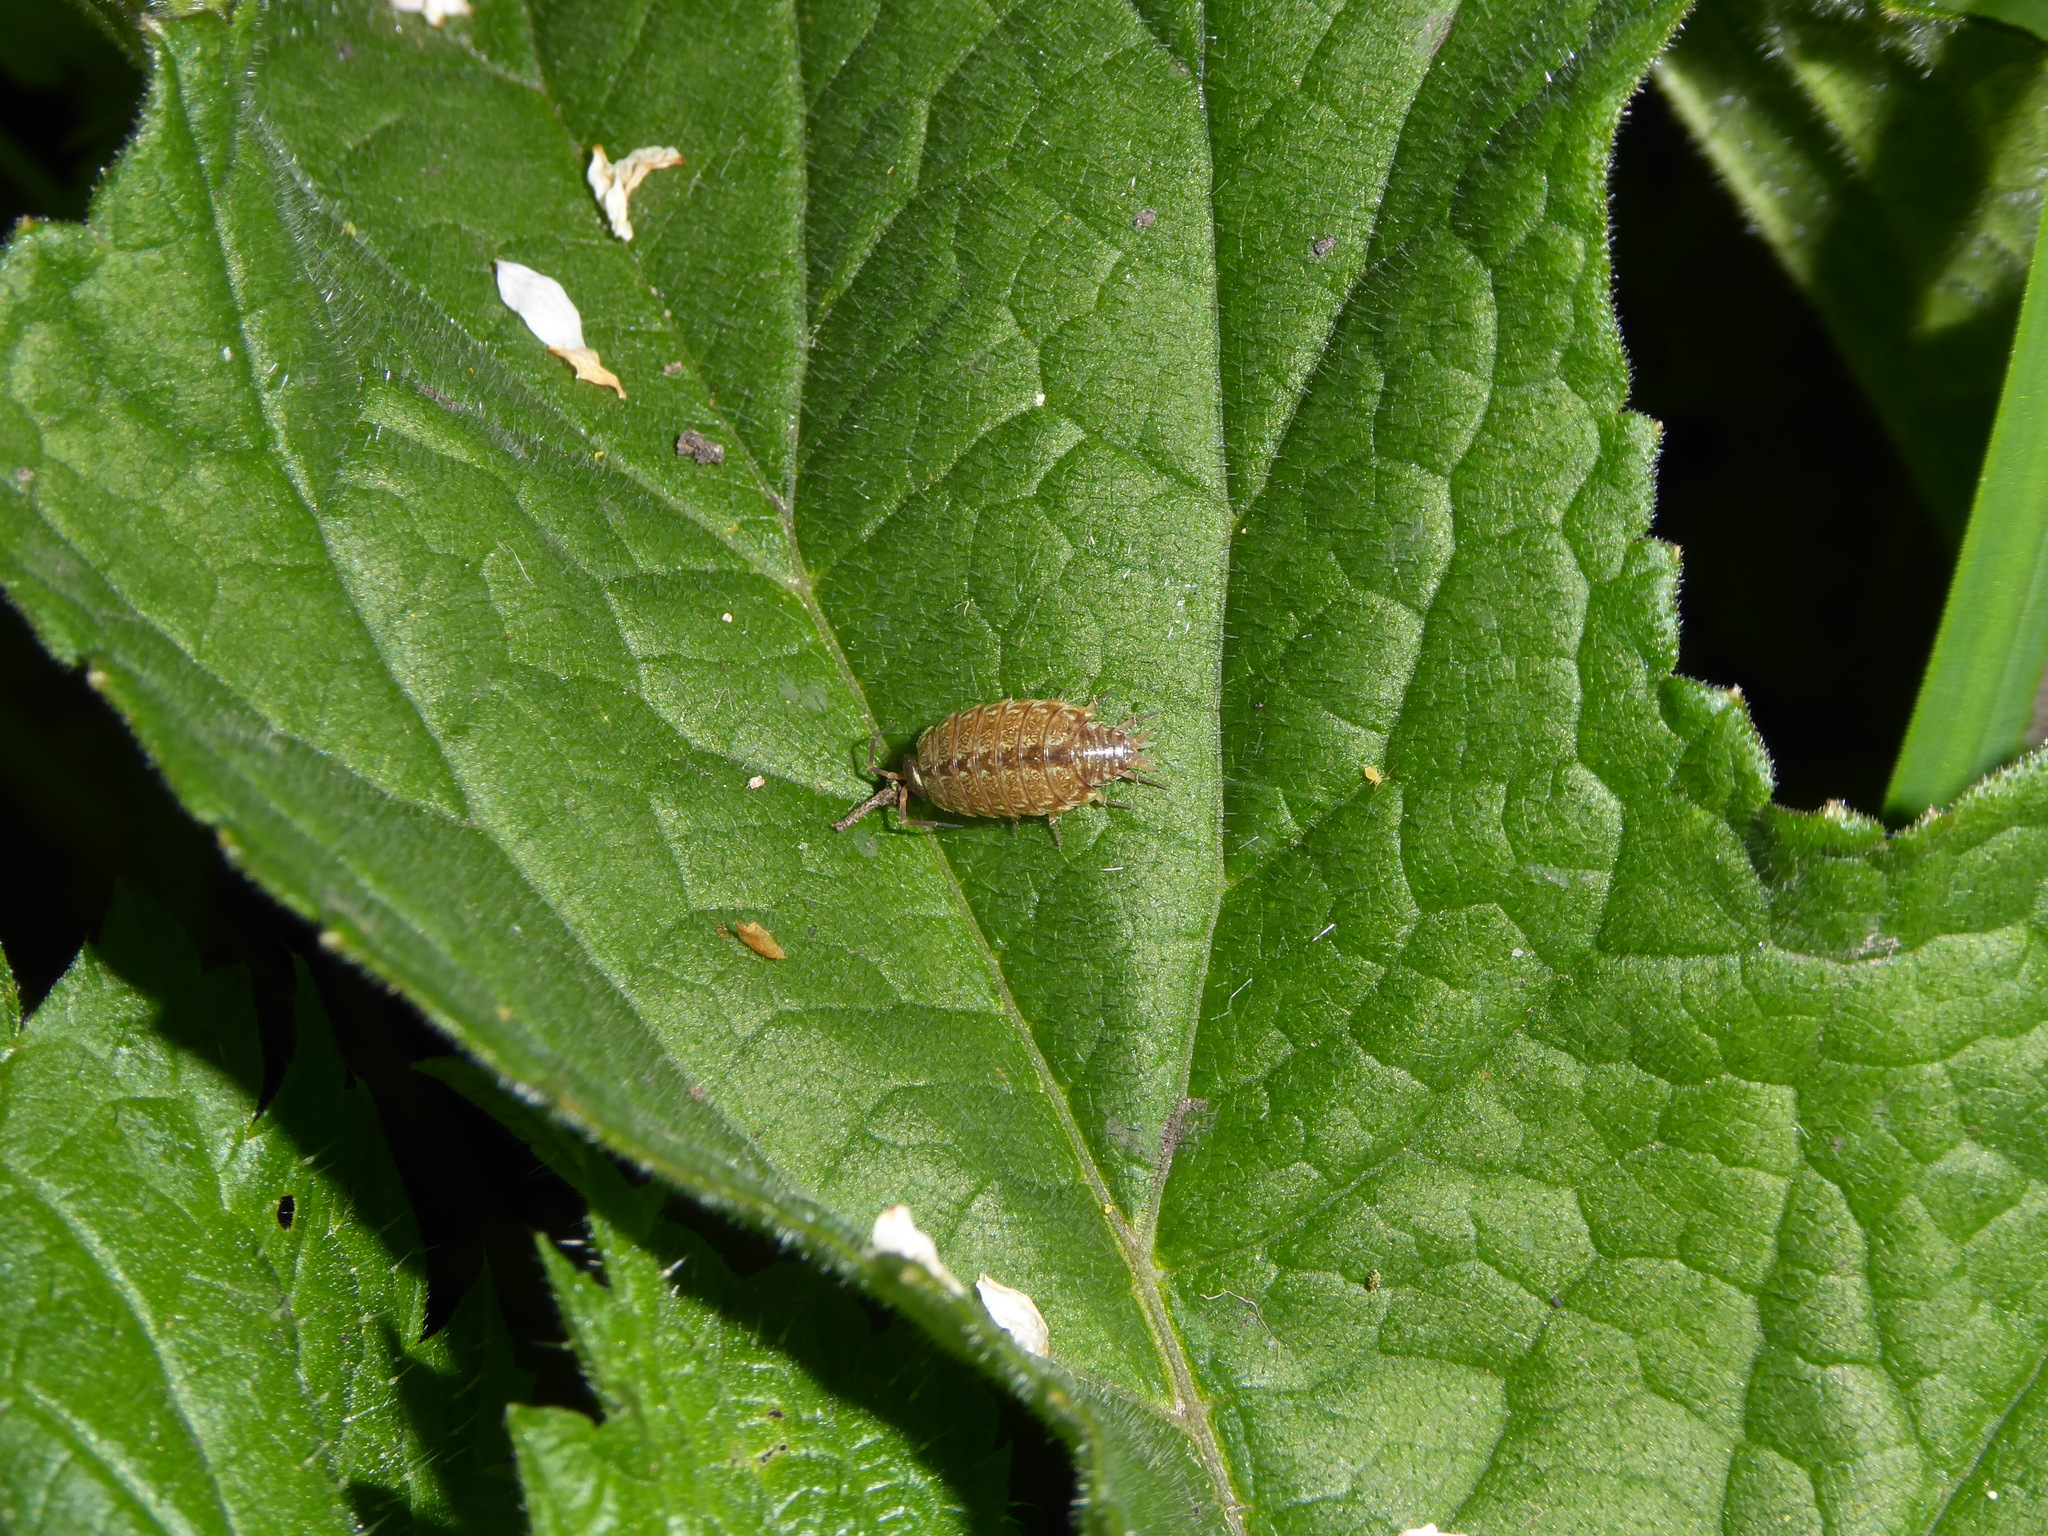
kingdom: Animalia
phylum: Arthropoda
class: Malacostraca
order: Isopoda
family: Philosciidae
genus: Philoscia
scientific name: Philoscia muscorum
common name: Common striped woodlouse
